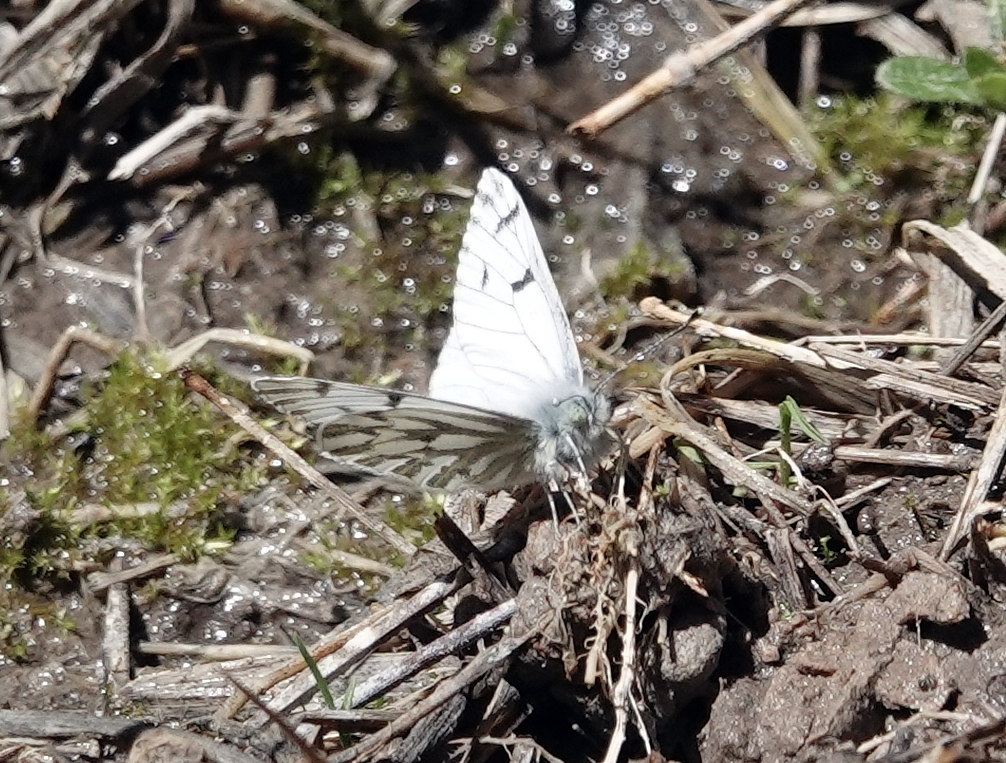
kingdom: Animalia
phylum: Arthropoda
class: Insecta
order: Lepidoptera
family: Pieridae
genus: Pontia
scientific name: Pontia sisymbrii
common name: California white
